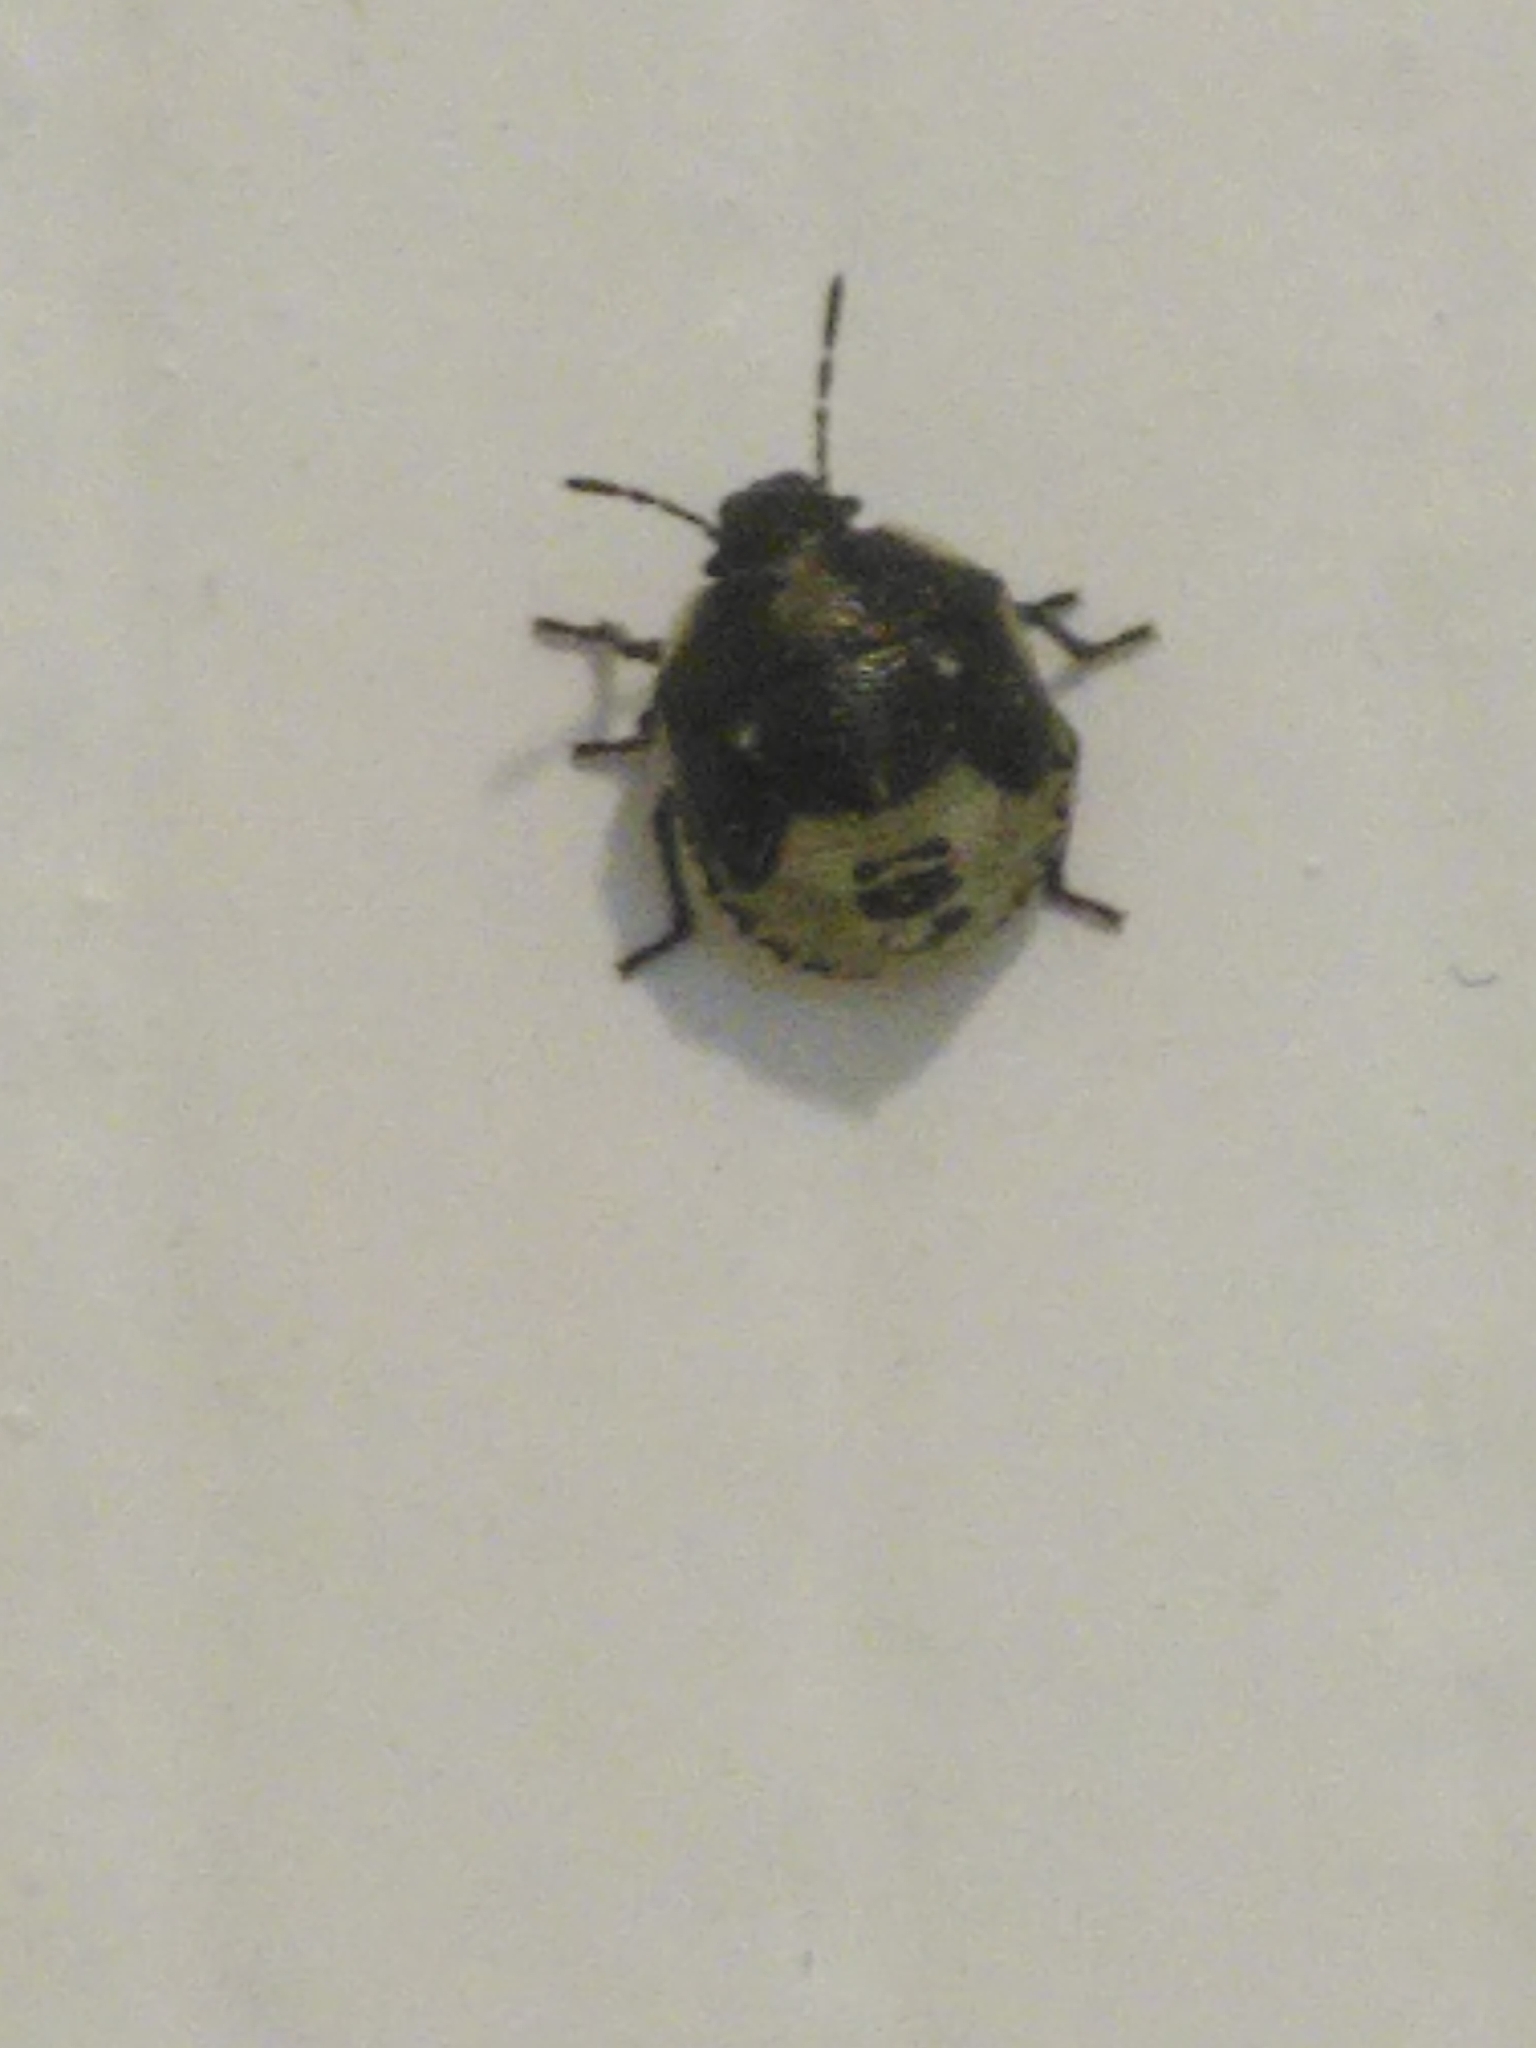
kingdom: Animalia
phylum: Arthropoda
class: Insecta
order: Hemiptera
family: Pentatomidae
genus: Eysarcoris
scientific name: Eysarcoris venustissimus
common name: Woundwort shieldbug
